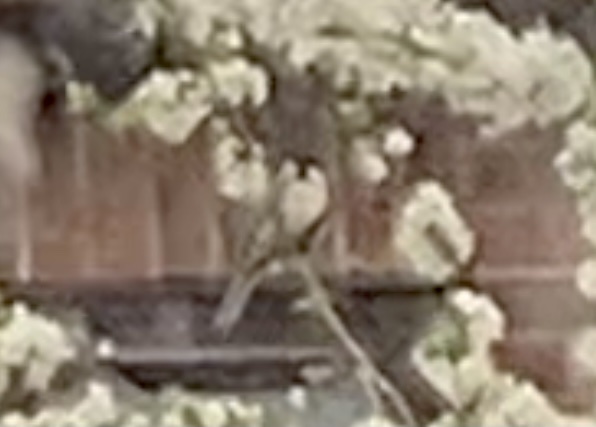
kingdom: Animalia
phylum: Chordata
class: Aves
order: Passeriformes
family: Paridae
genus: Parus
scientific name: Parus major
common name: Great tit
